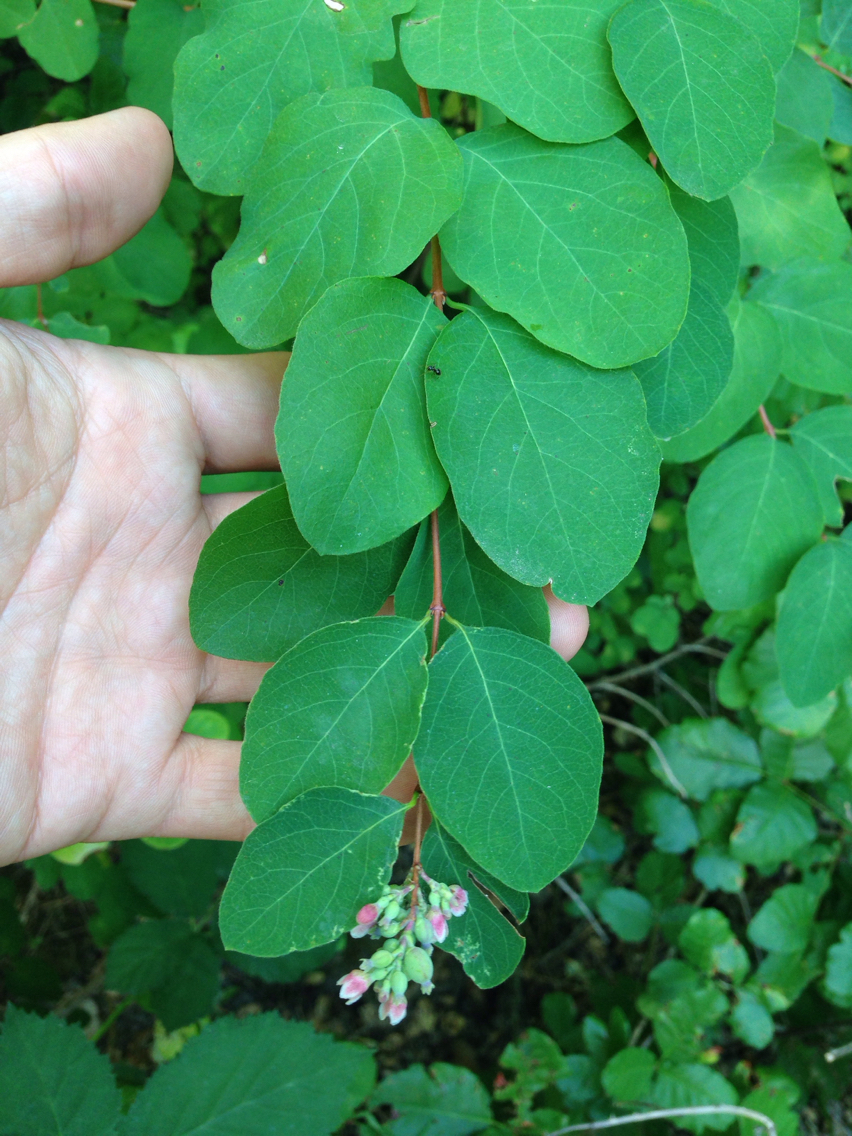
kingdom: Plantae
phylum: Tracheophyta
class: Magnoliopsida
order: Dipsacales
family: Caprifoliaceae
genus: Symphoricarpos
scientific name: Symphoricarpos albus
